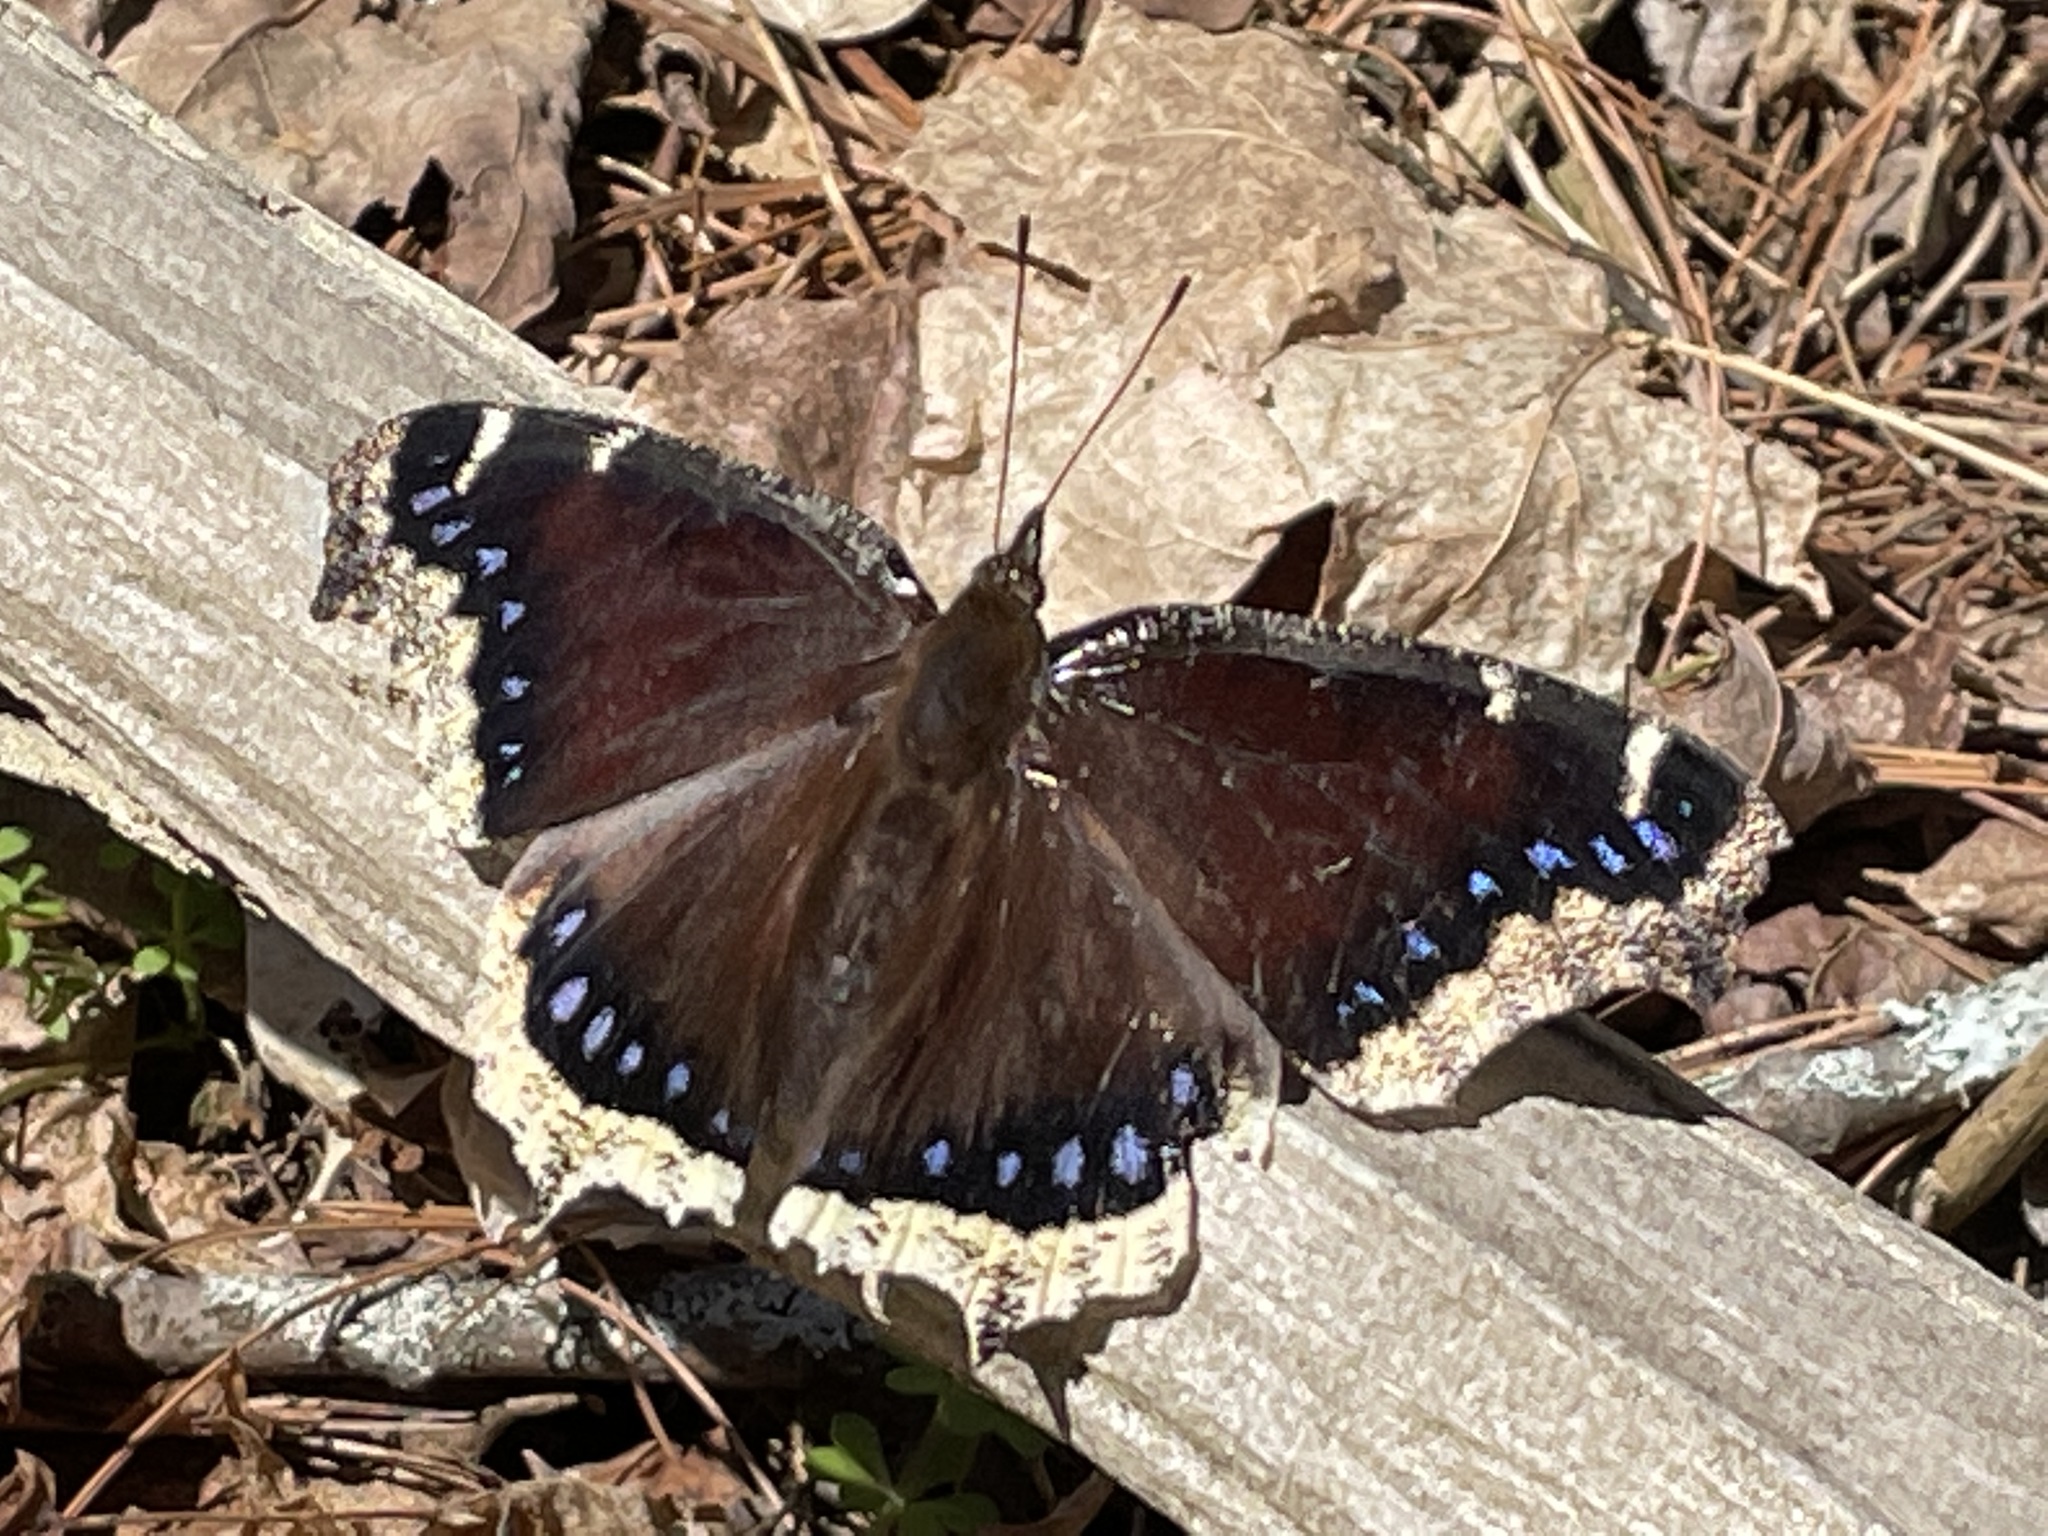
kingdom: Animalia
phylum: Arthropoda
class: Insecta
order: Lepidoptera
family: Nymphalidae
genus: Nymphalis
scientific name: Nymphalis antiopa
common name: Camberwell beauty
